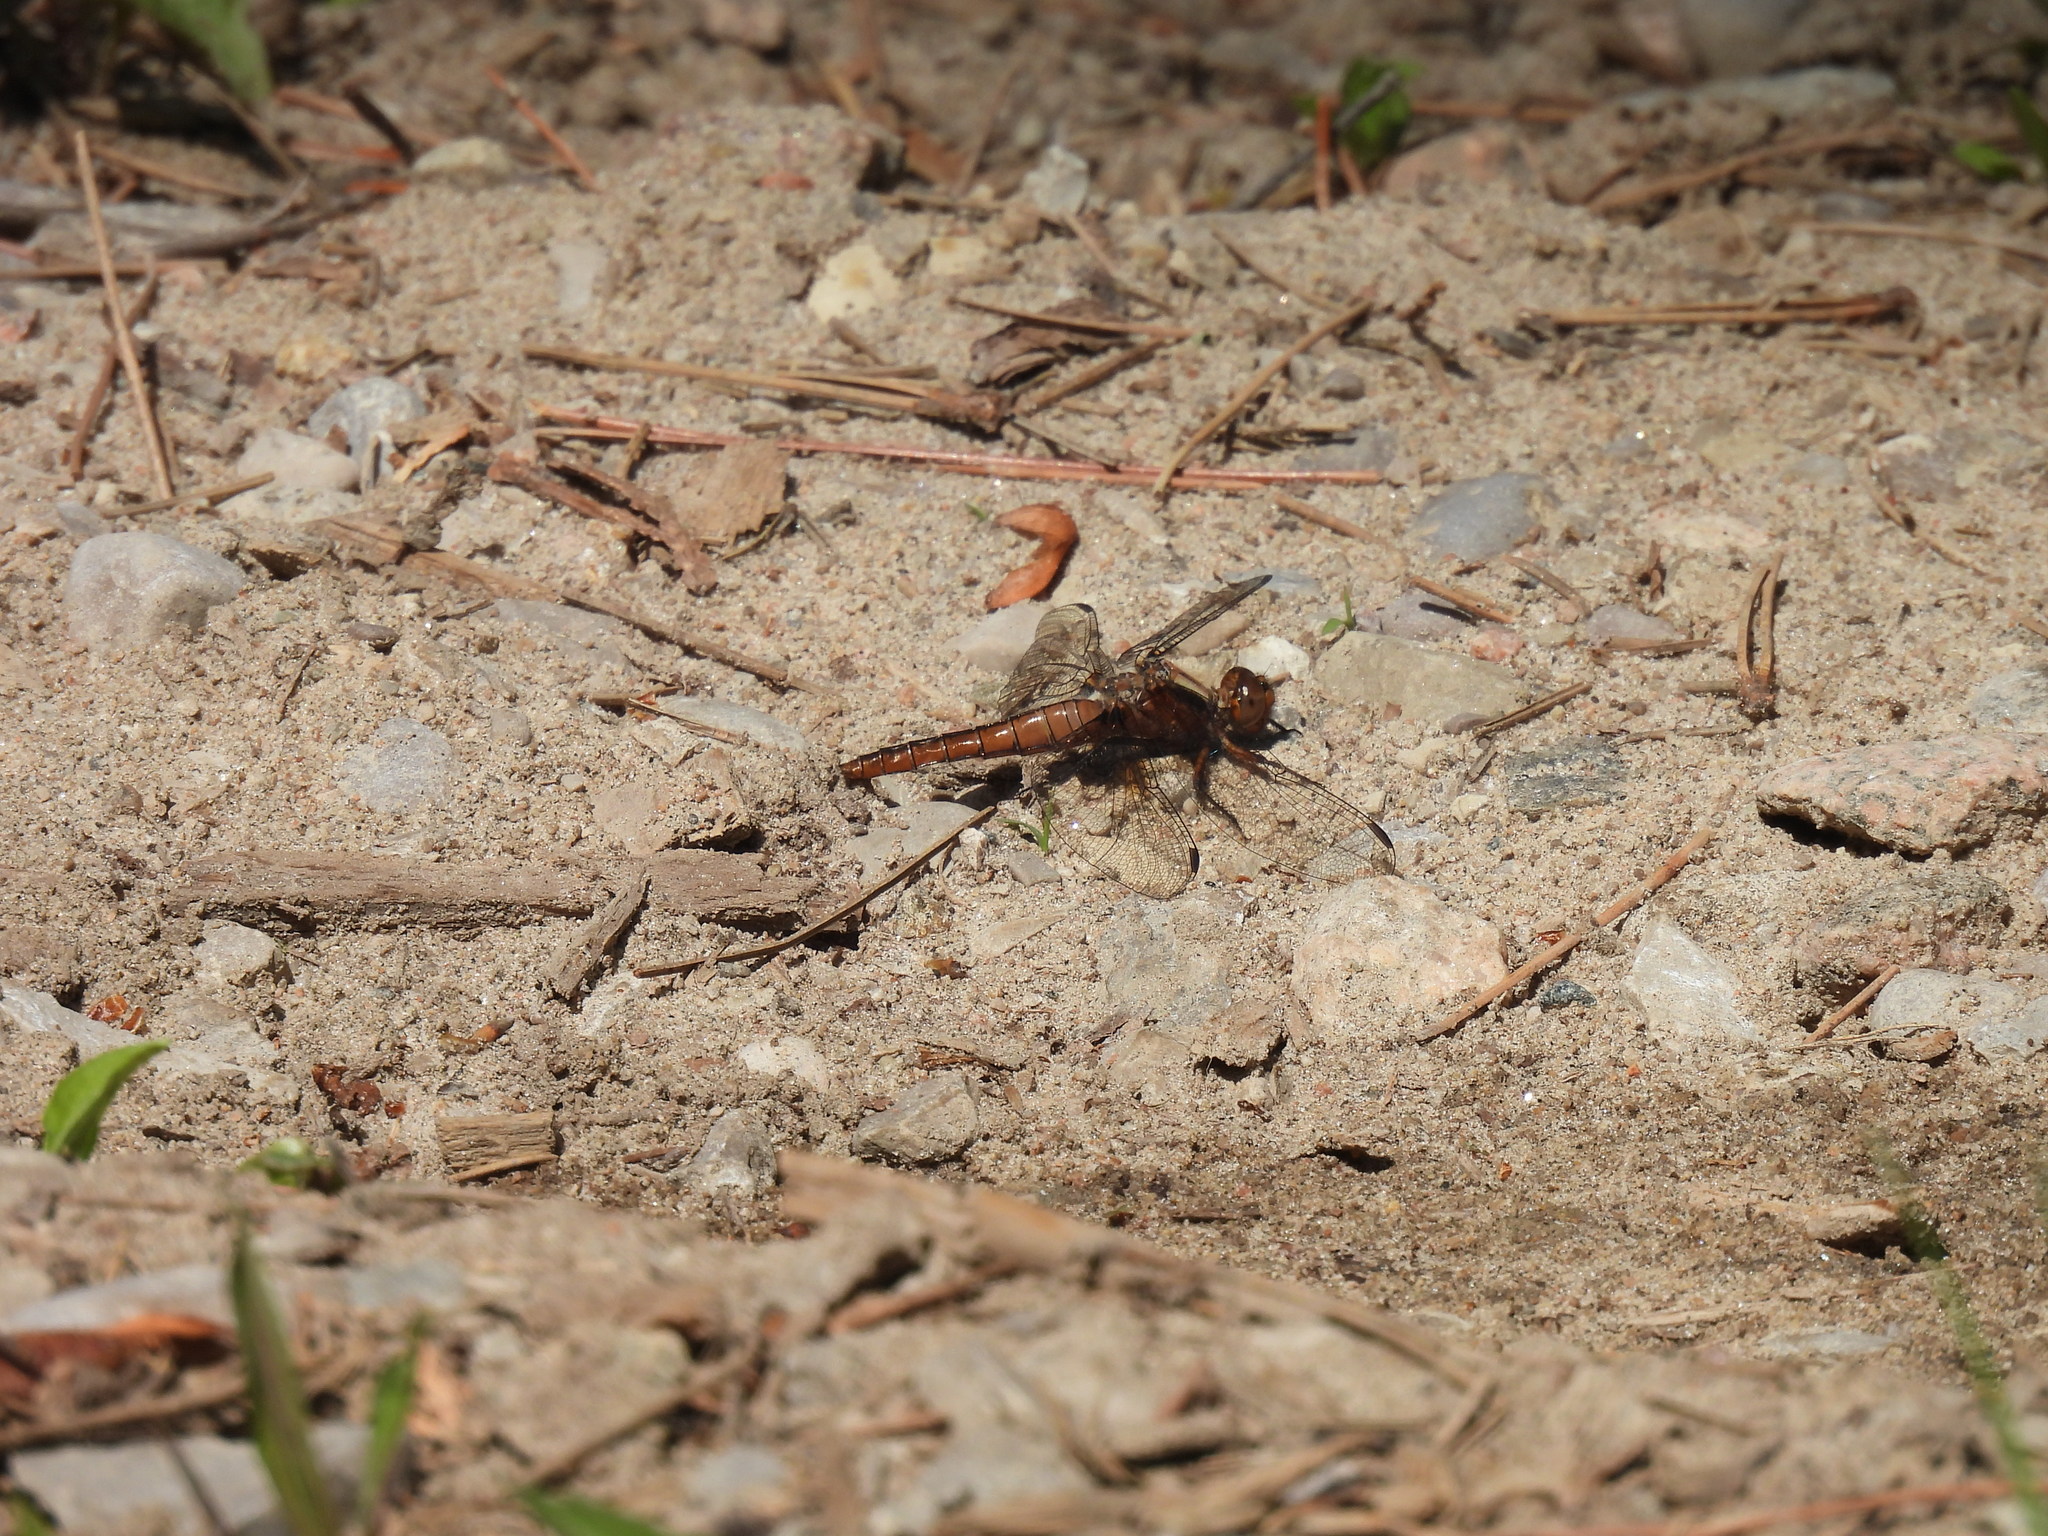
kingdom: Animalia
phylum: Arthropoda
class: Insecta
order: Odonata
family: Libellulidae
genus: Ladona
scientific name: Ladona julia
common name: Chalk-fronted corporal
